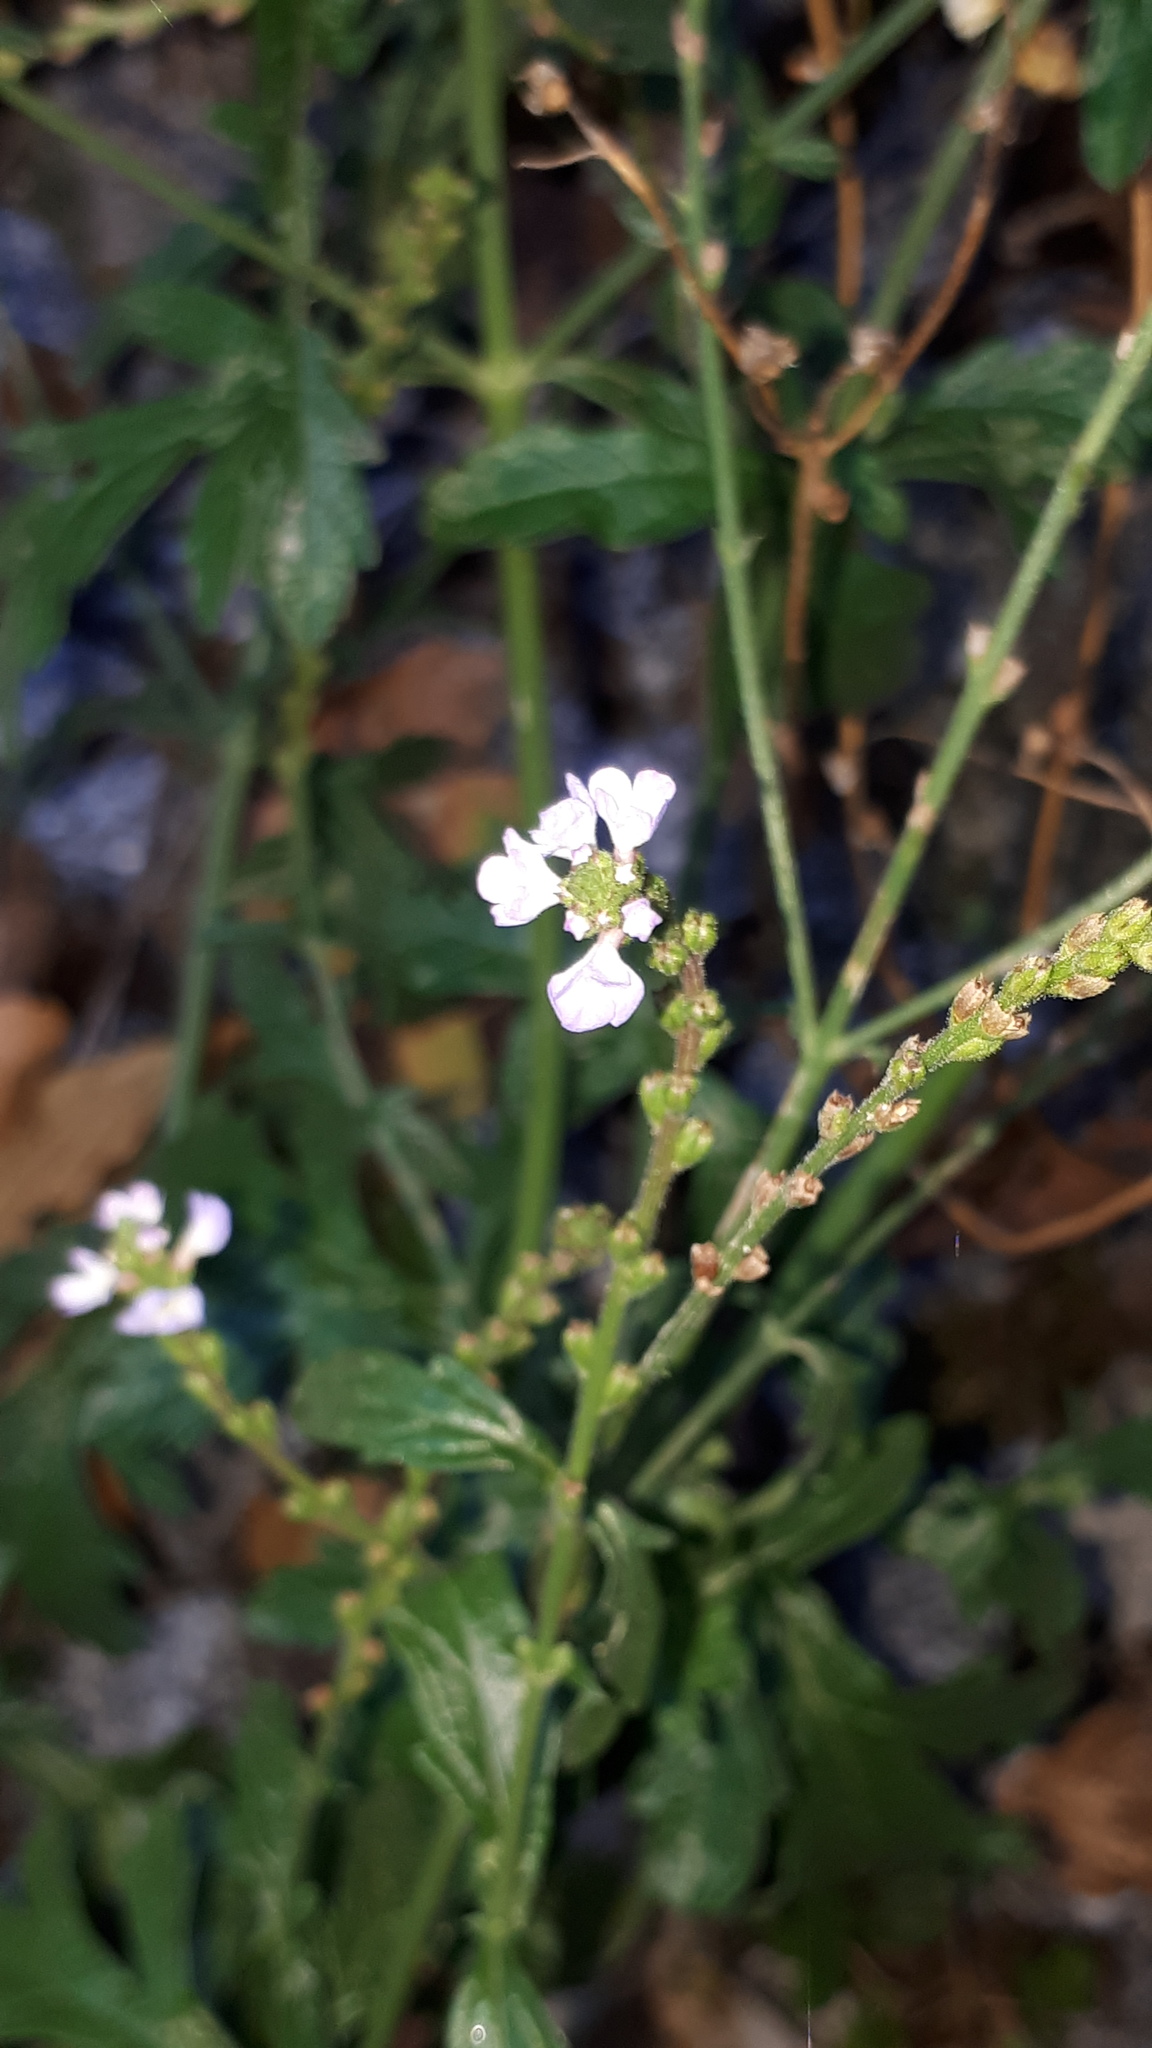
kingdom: Plantae
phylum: Tracheophyta
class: Magnoliopsida
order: Lamiales
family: Verbenaceae
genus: Verbena
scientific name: Verbena officinalis
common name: Vervain
